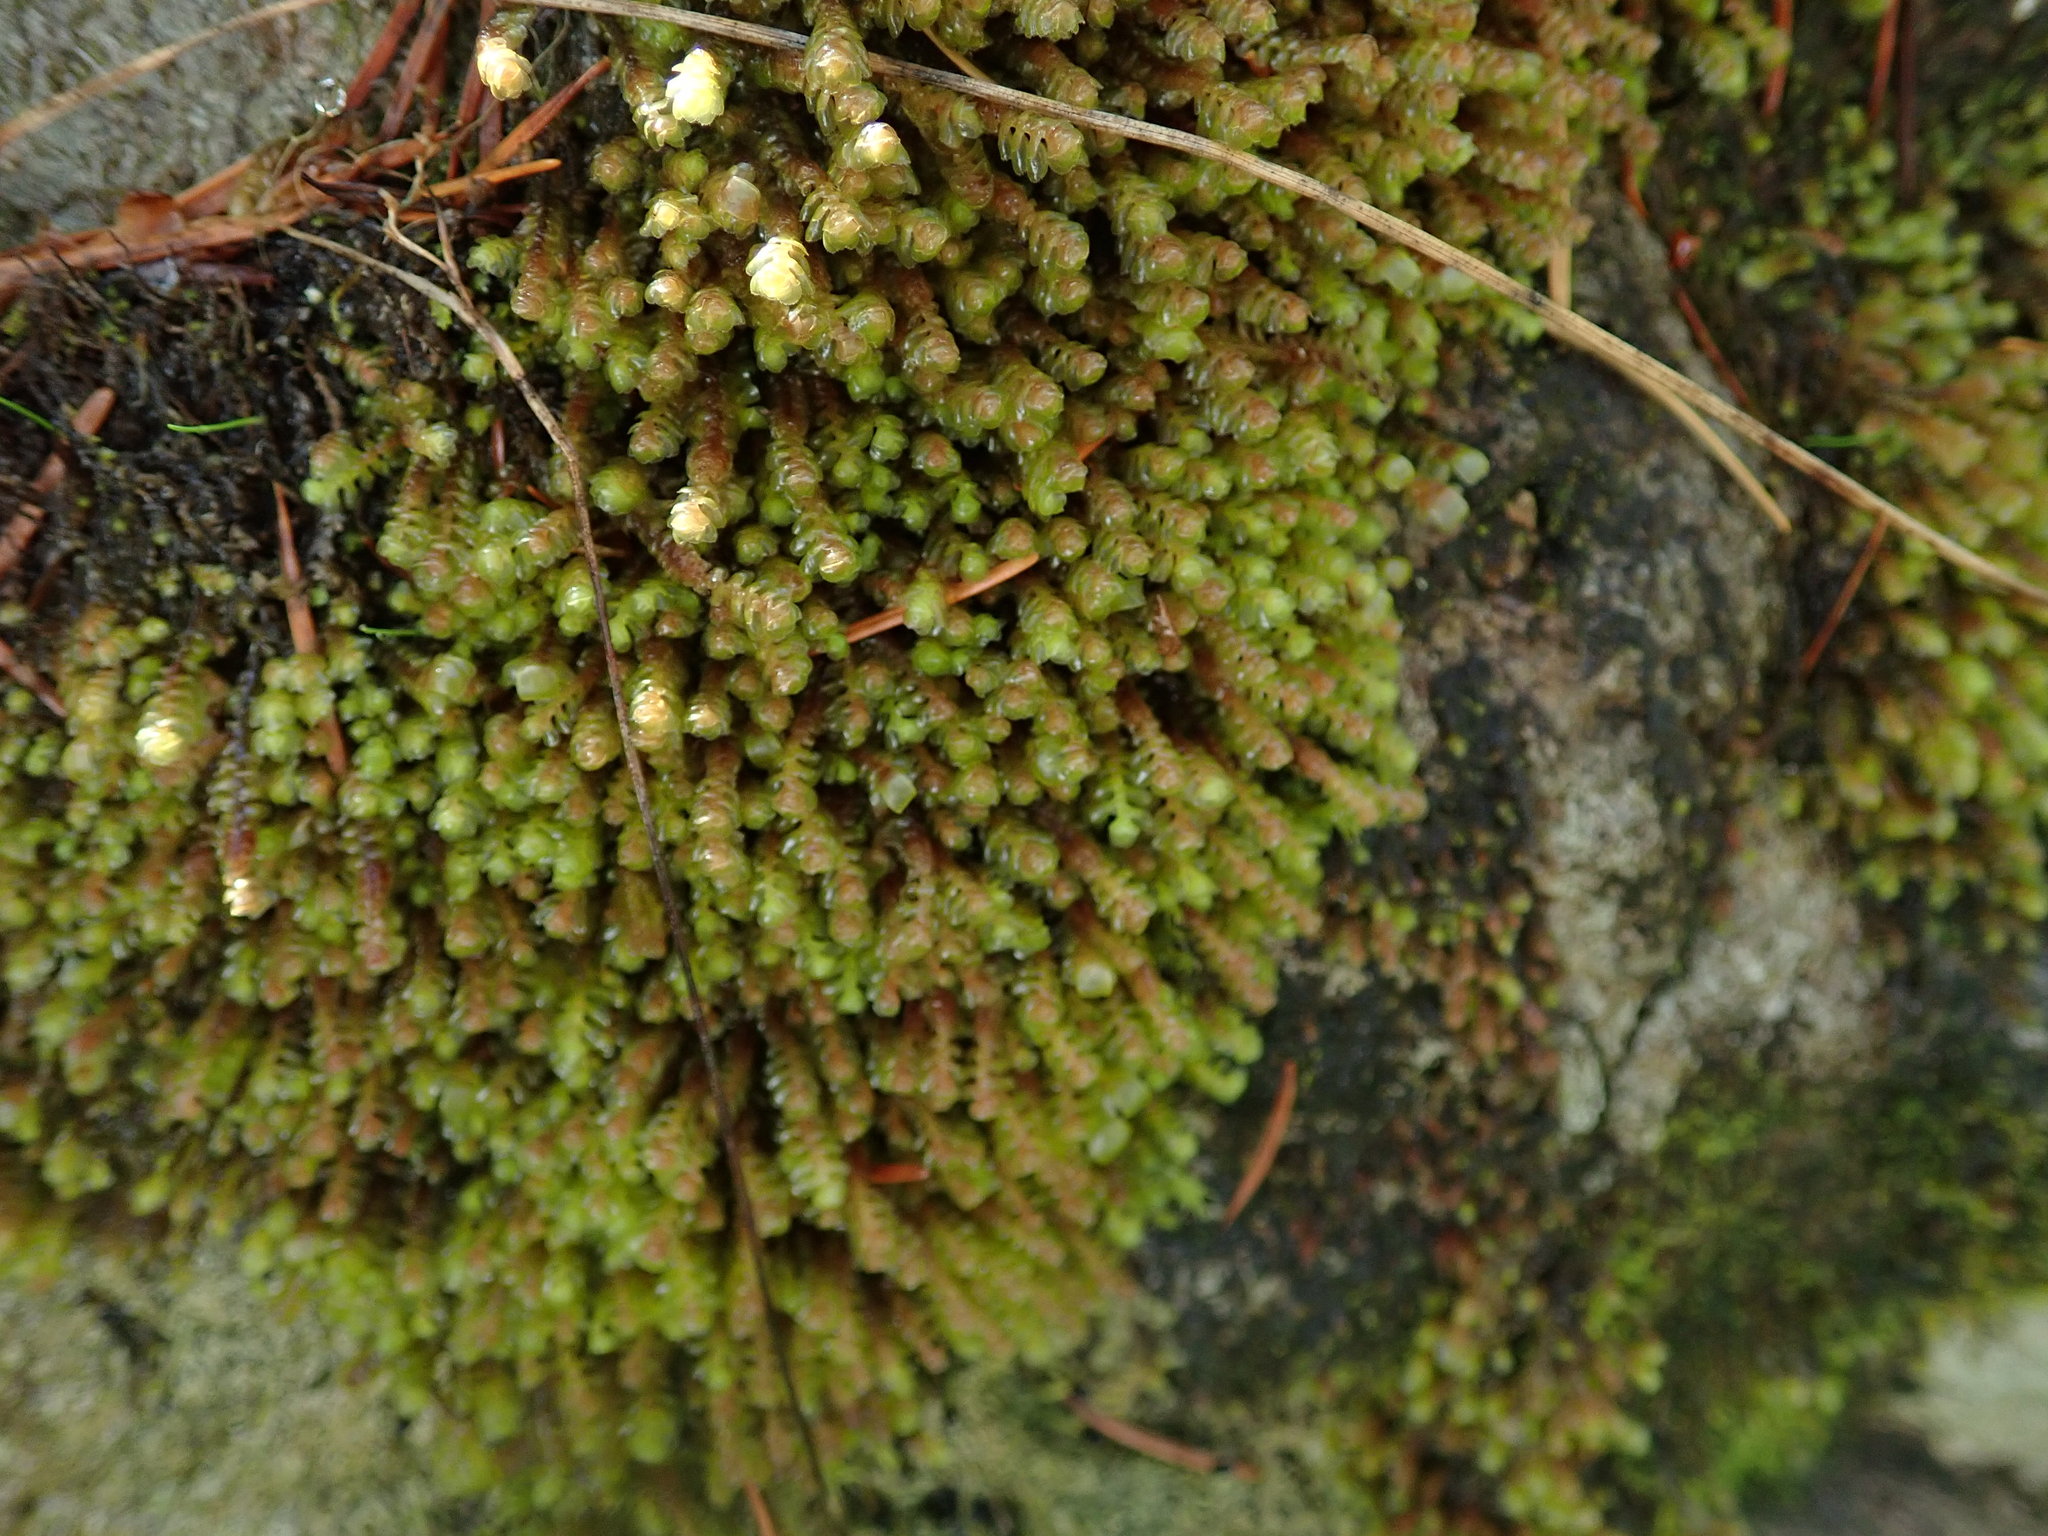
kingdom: Plantae
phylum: Marchantiophyta
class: Jungermanniopsida
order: Jungermanniales
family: Scapaniaceae
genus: Scapania
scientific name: Scapania americana
